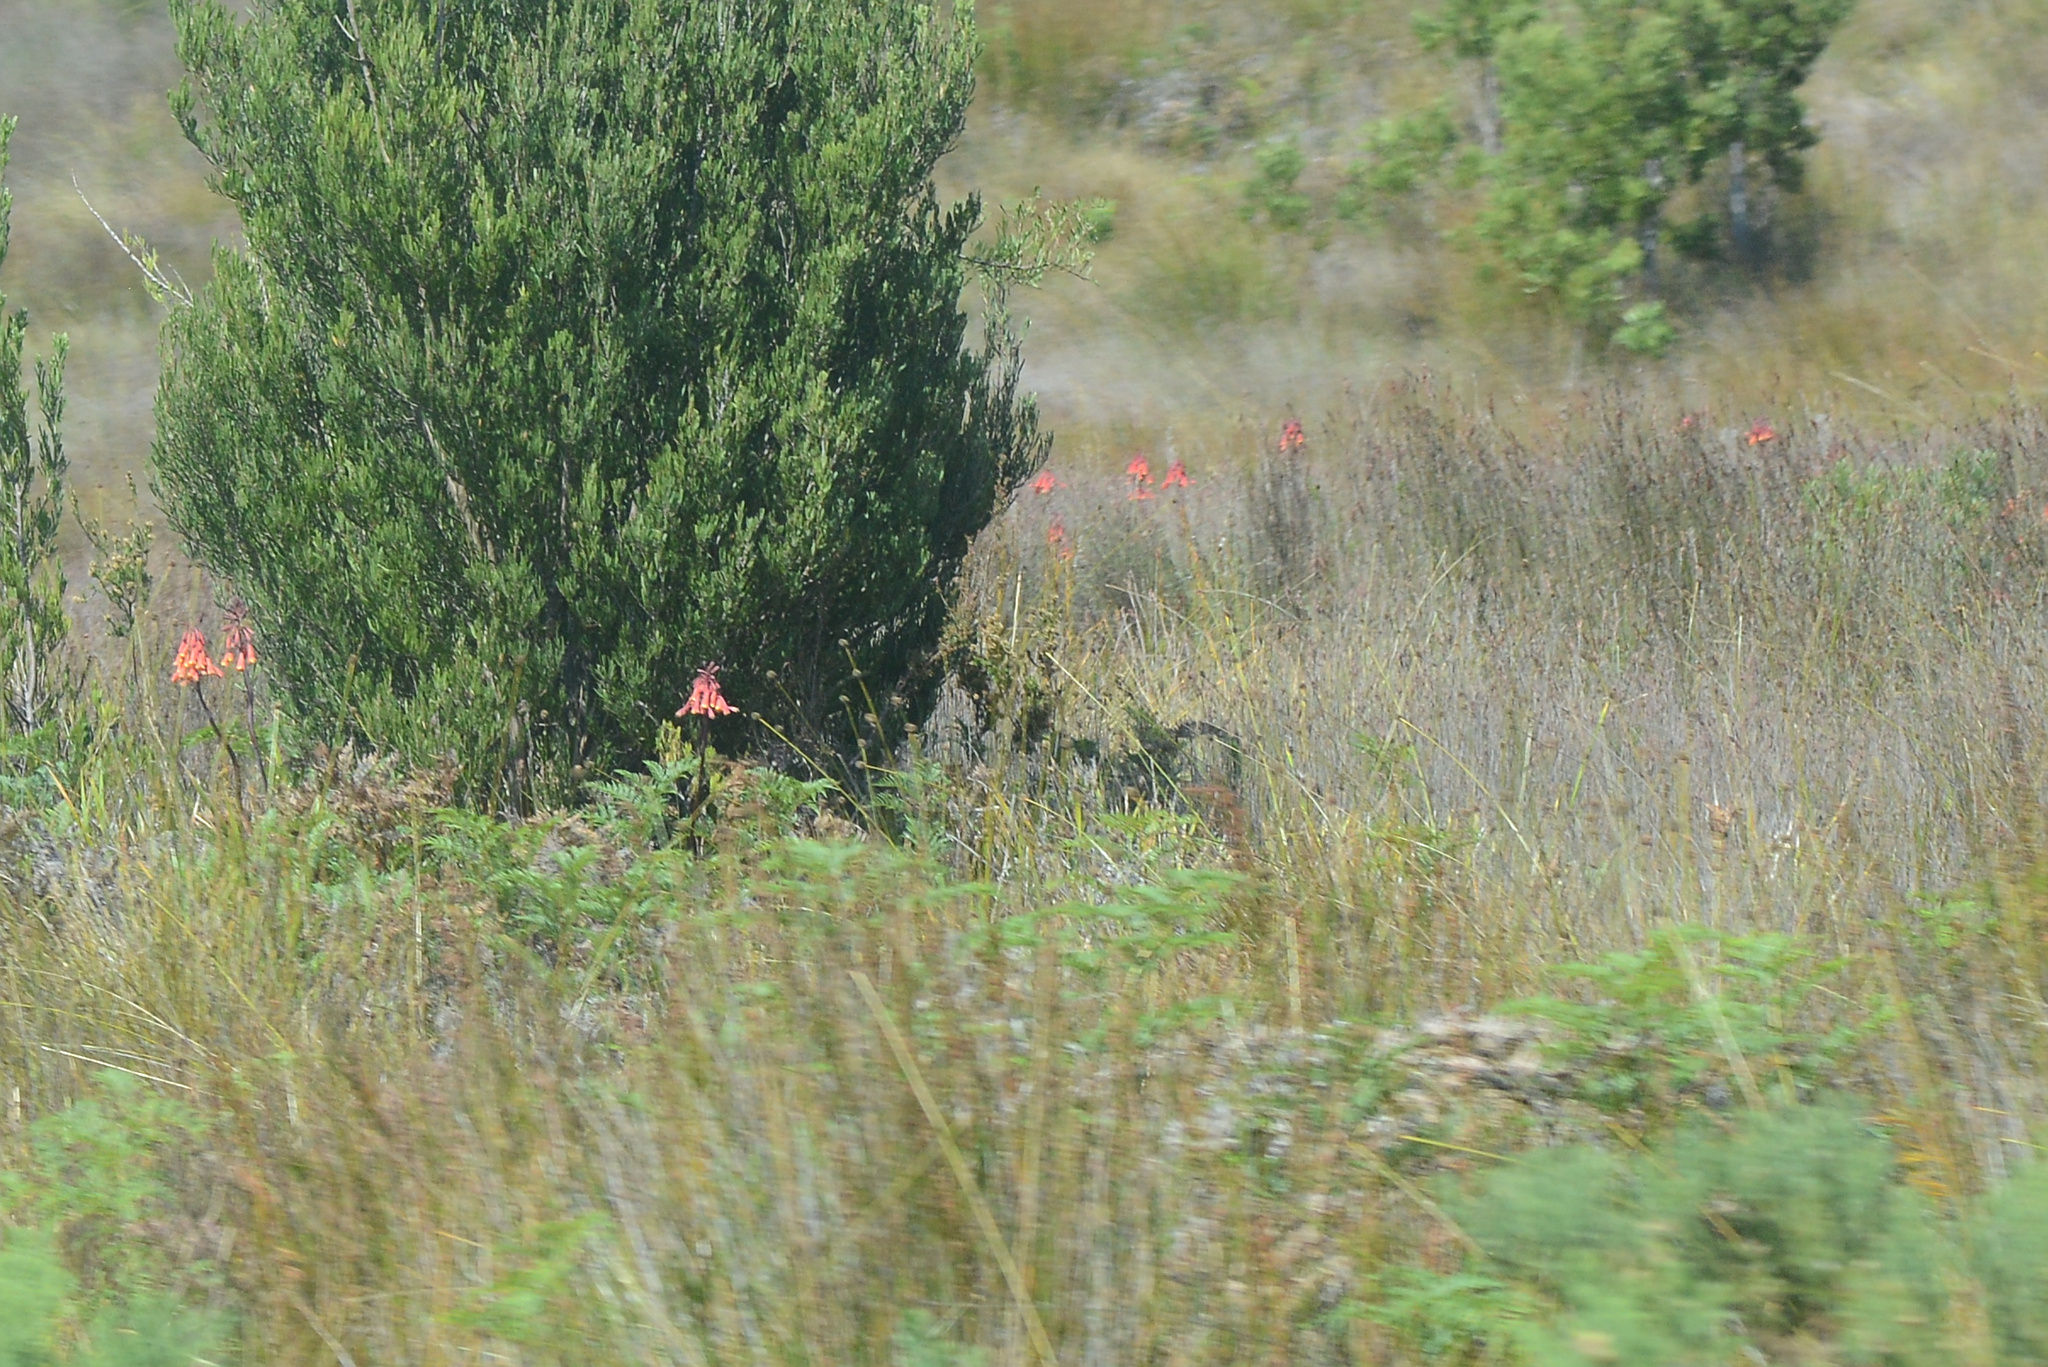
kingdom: Plantae
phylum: Tracheophyta
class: Liliopsida
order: Asparagales
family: Blandfordiaceae
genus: Blandfordia
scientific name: Blandfordia punicea
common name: Tasmanian christmas-bell
